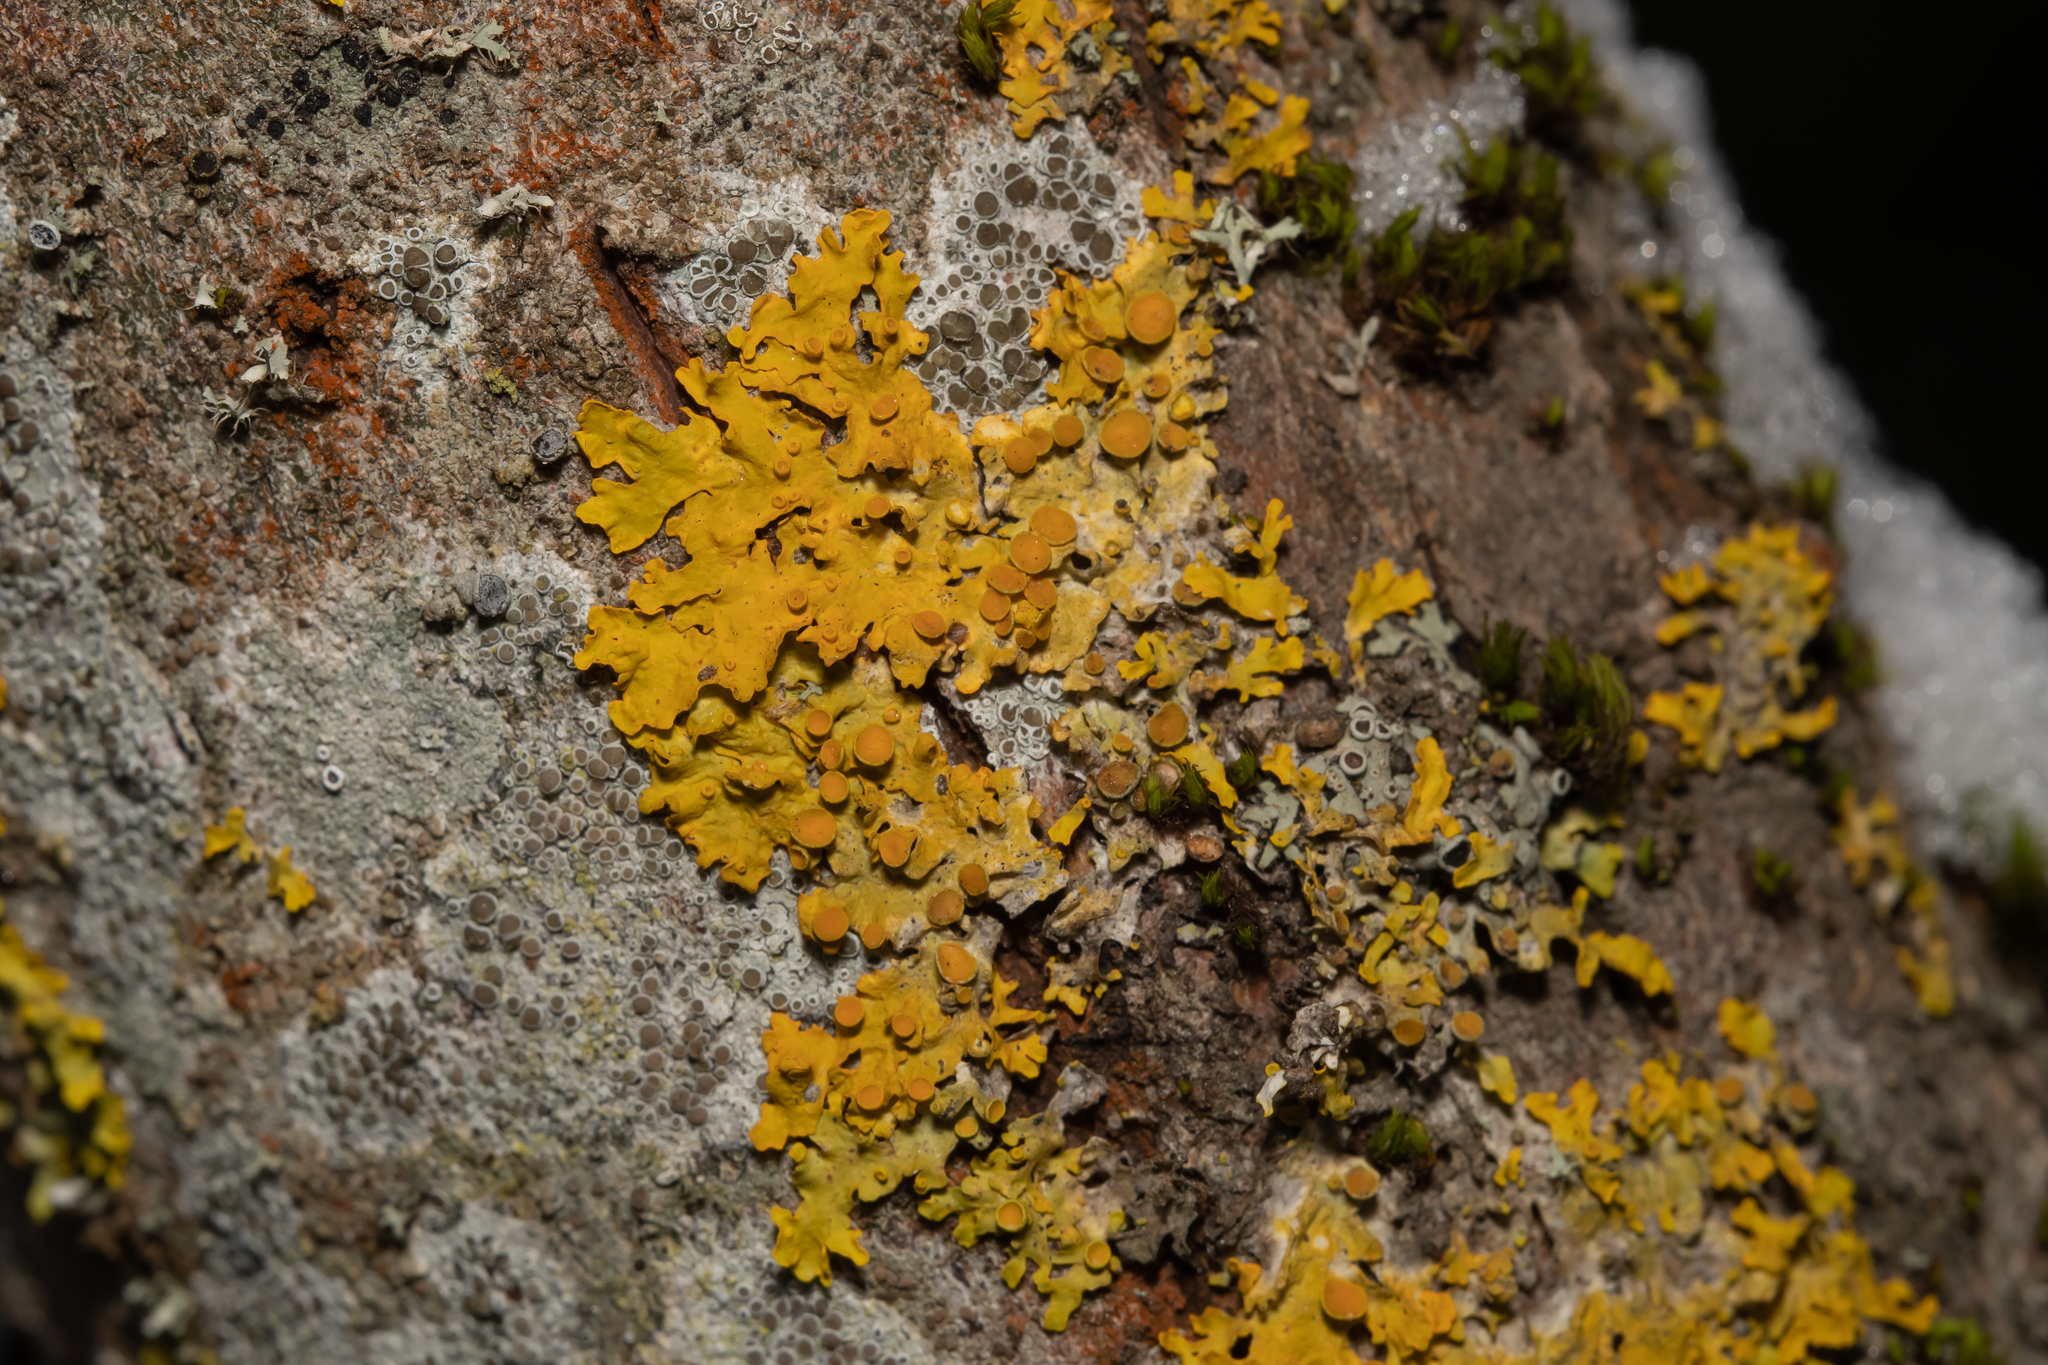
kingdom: Fungi
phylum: Ascomycota
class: Lecanoromycetes
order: Teloschistales
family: Teloschistaceae
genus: Xanthoria
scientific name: Xanthoria parietina
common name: Common orange lichen
